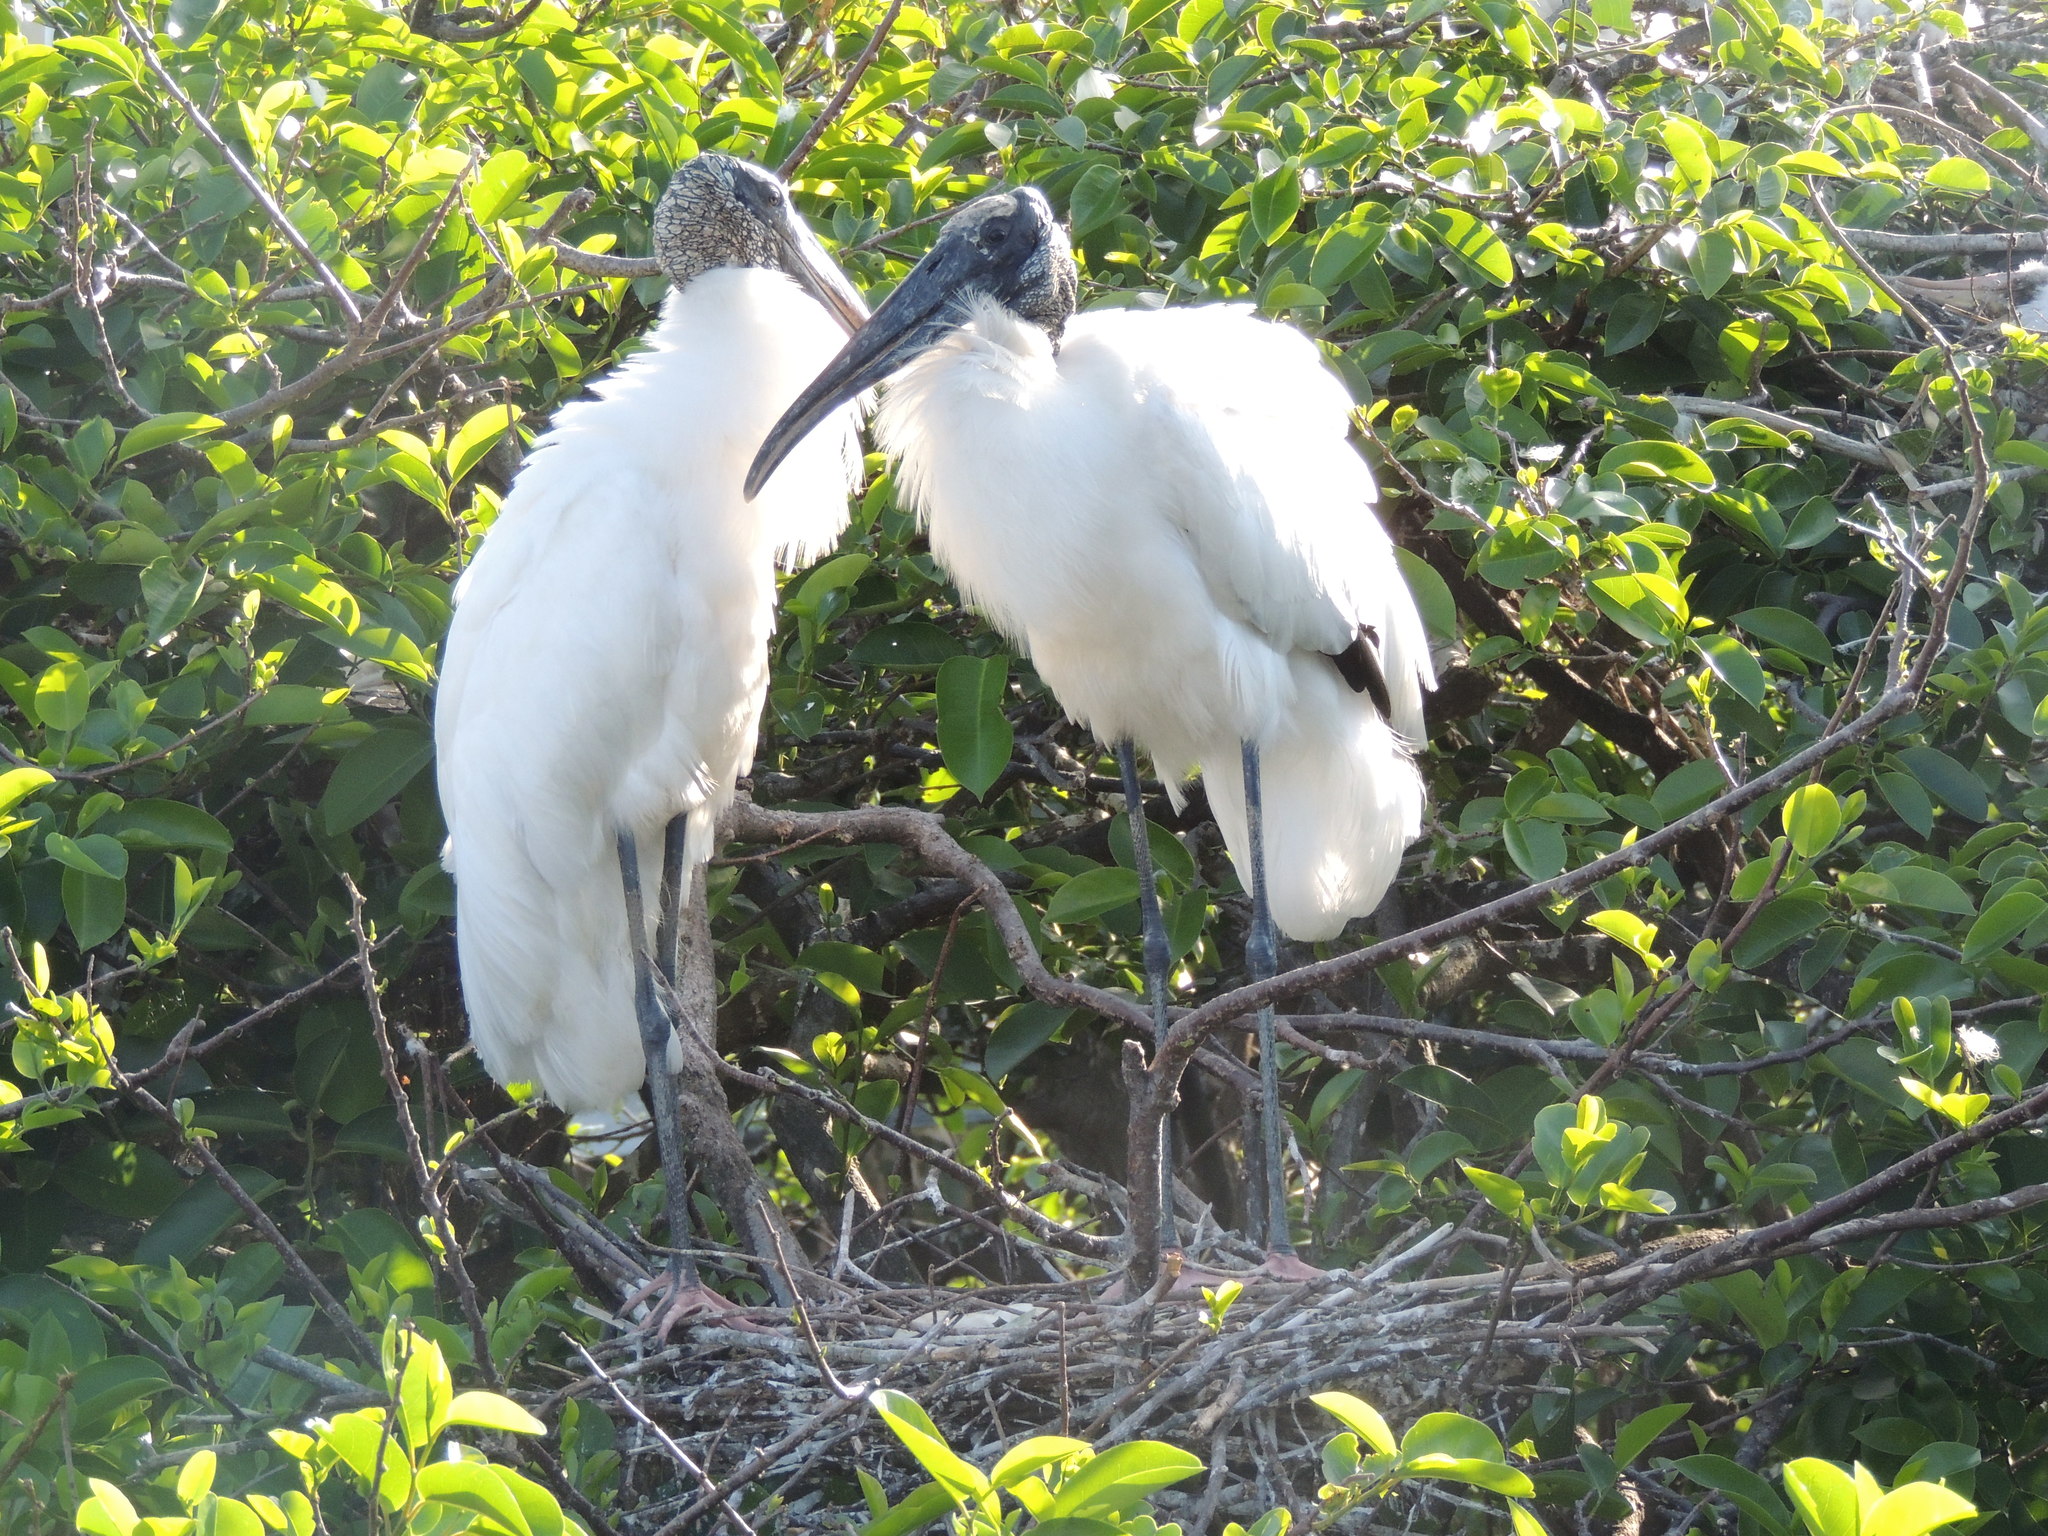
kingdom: Animalia
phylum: Chordata
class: Aves
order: Ciconiiformes
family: Ciconiidae
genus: Mycteria
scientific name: Mycteria americana
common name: Wood stork
